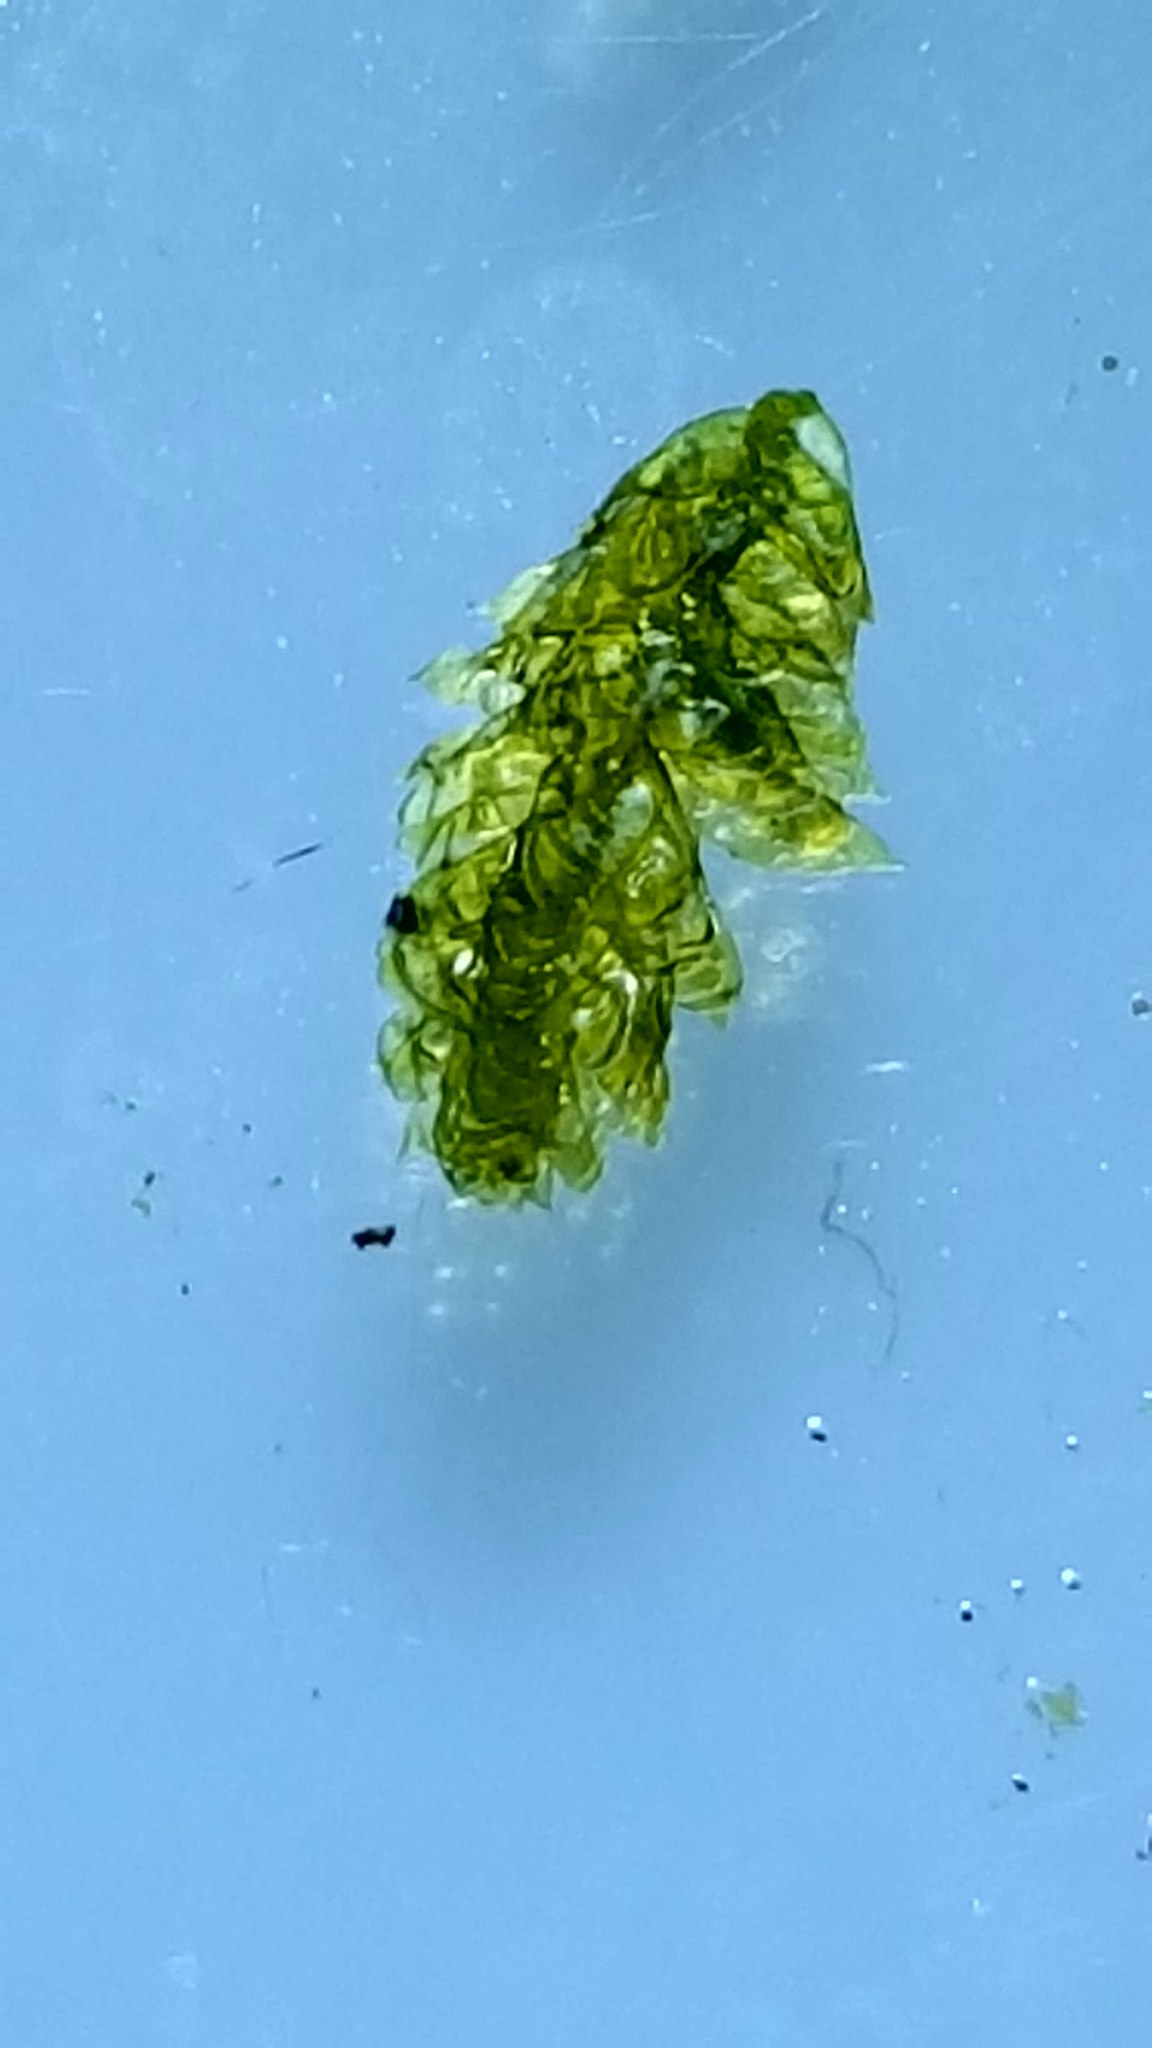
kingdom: Plantae
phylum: Bryophyta
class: Bryopsida
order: Hypnales
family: Neckeraceae
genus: Neckera
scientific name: Neckera pennata
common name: Feathery neckera
